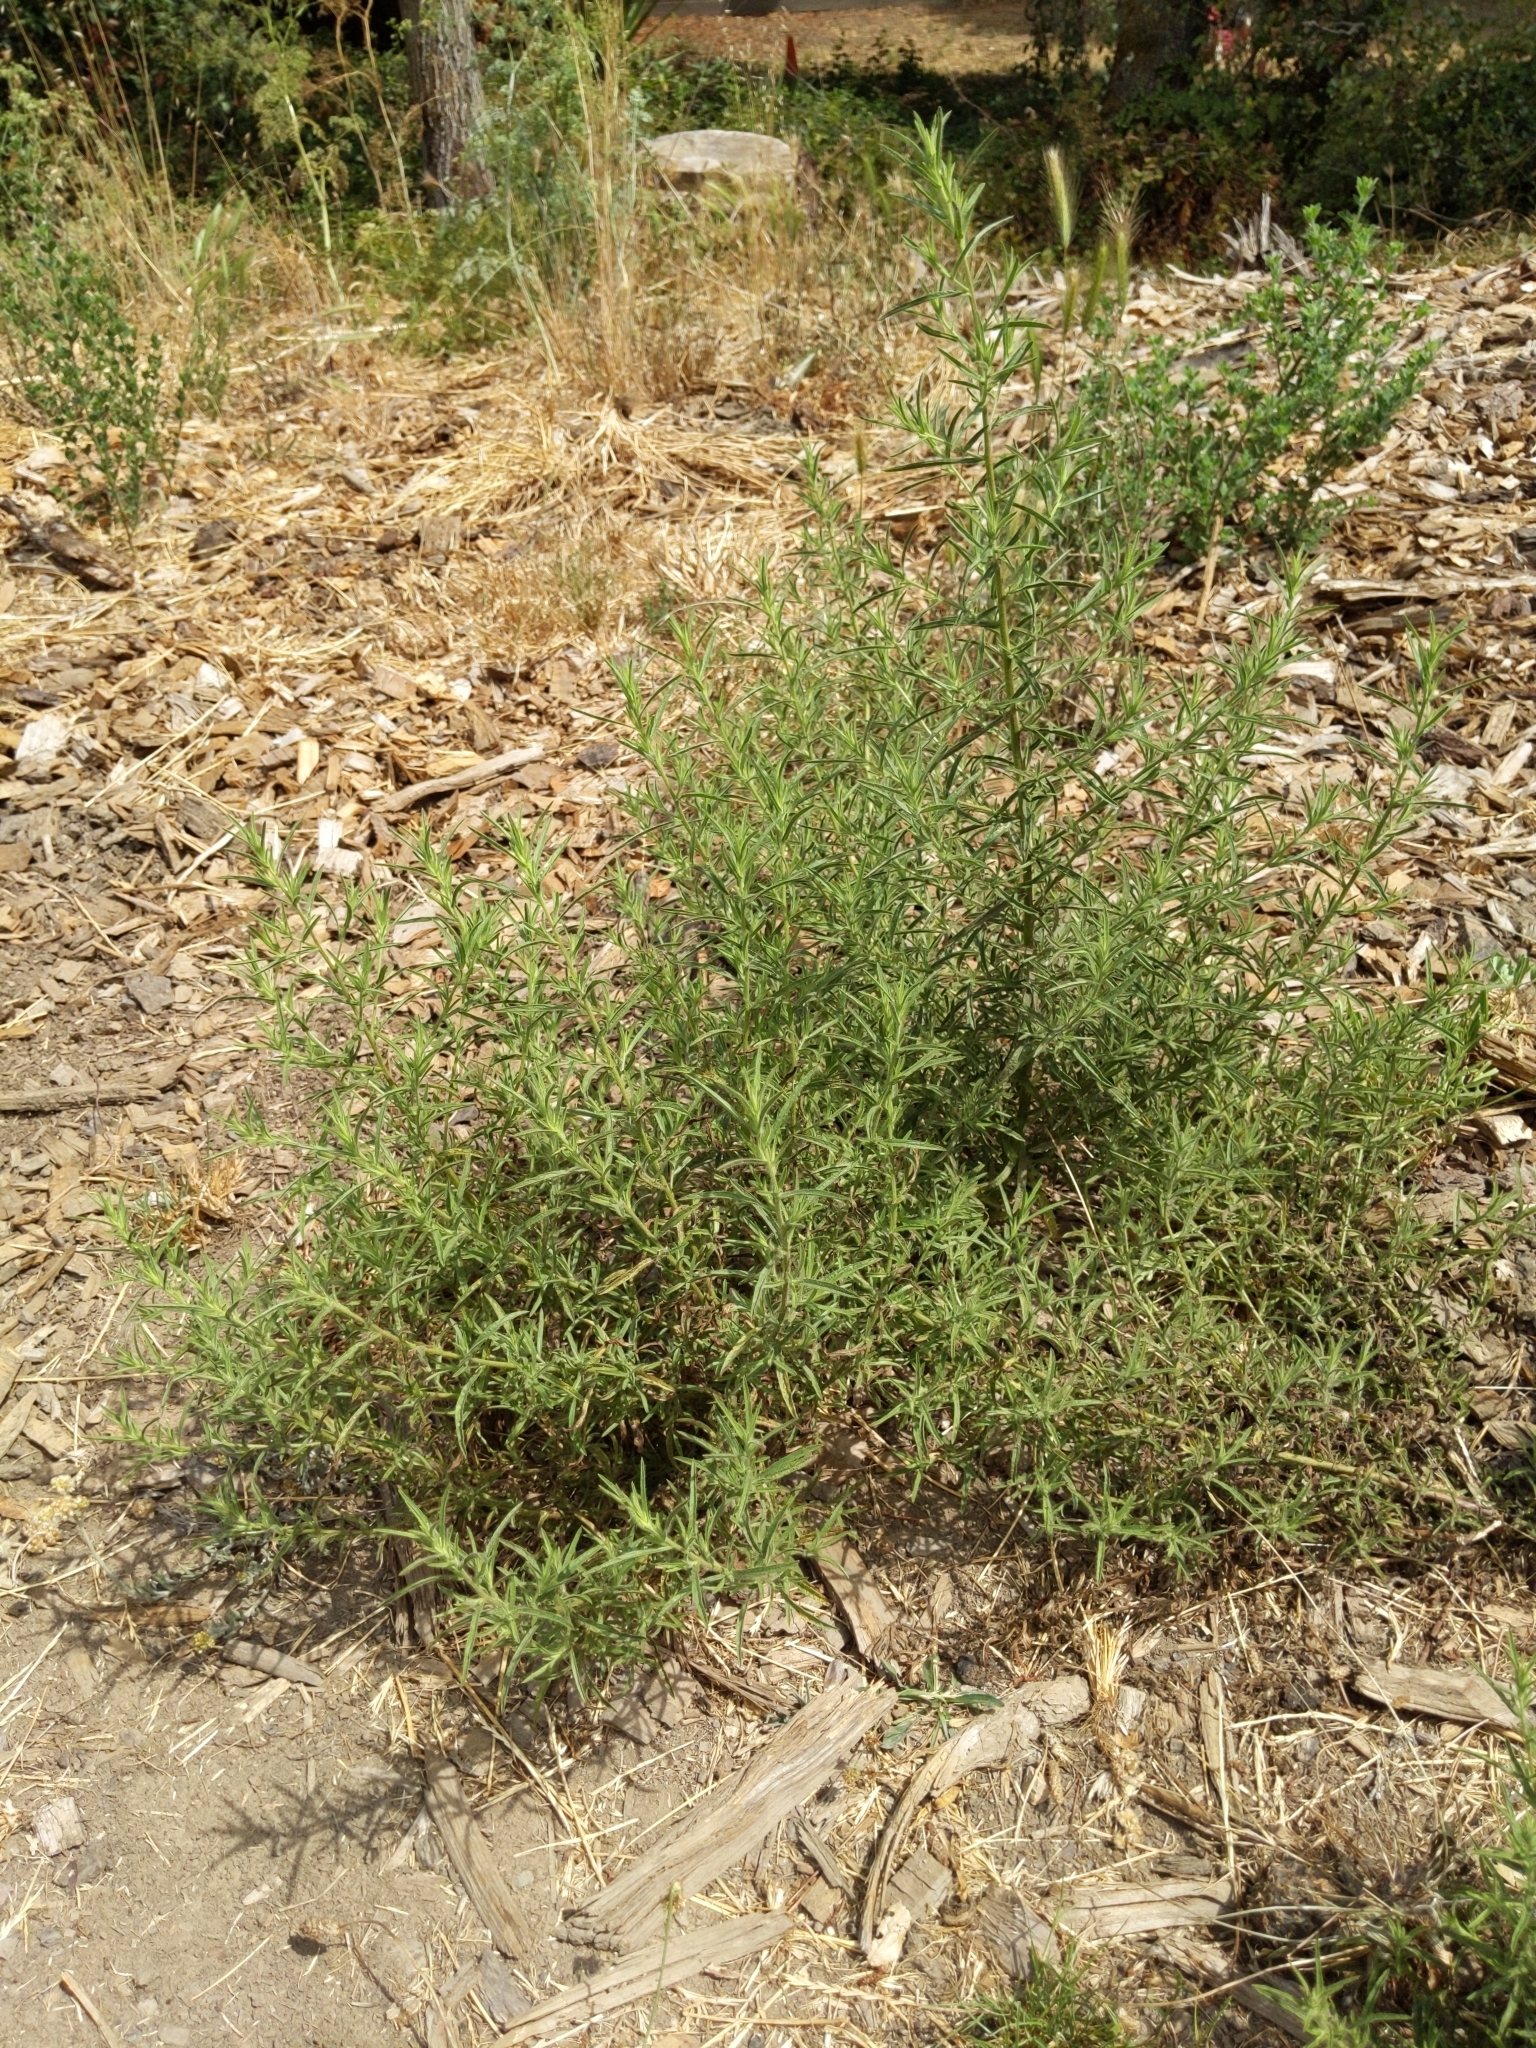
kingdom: Plantae
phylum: Tracheophyta
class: Magnoliopsida
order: Asterales
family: Asteraceae
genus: Dittrichia
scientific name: Dittrichia graveolens
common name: Stinking fleabane
